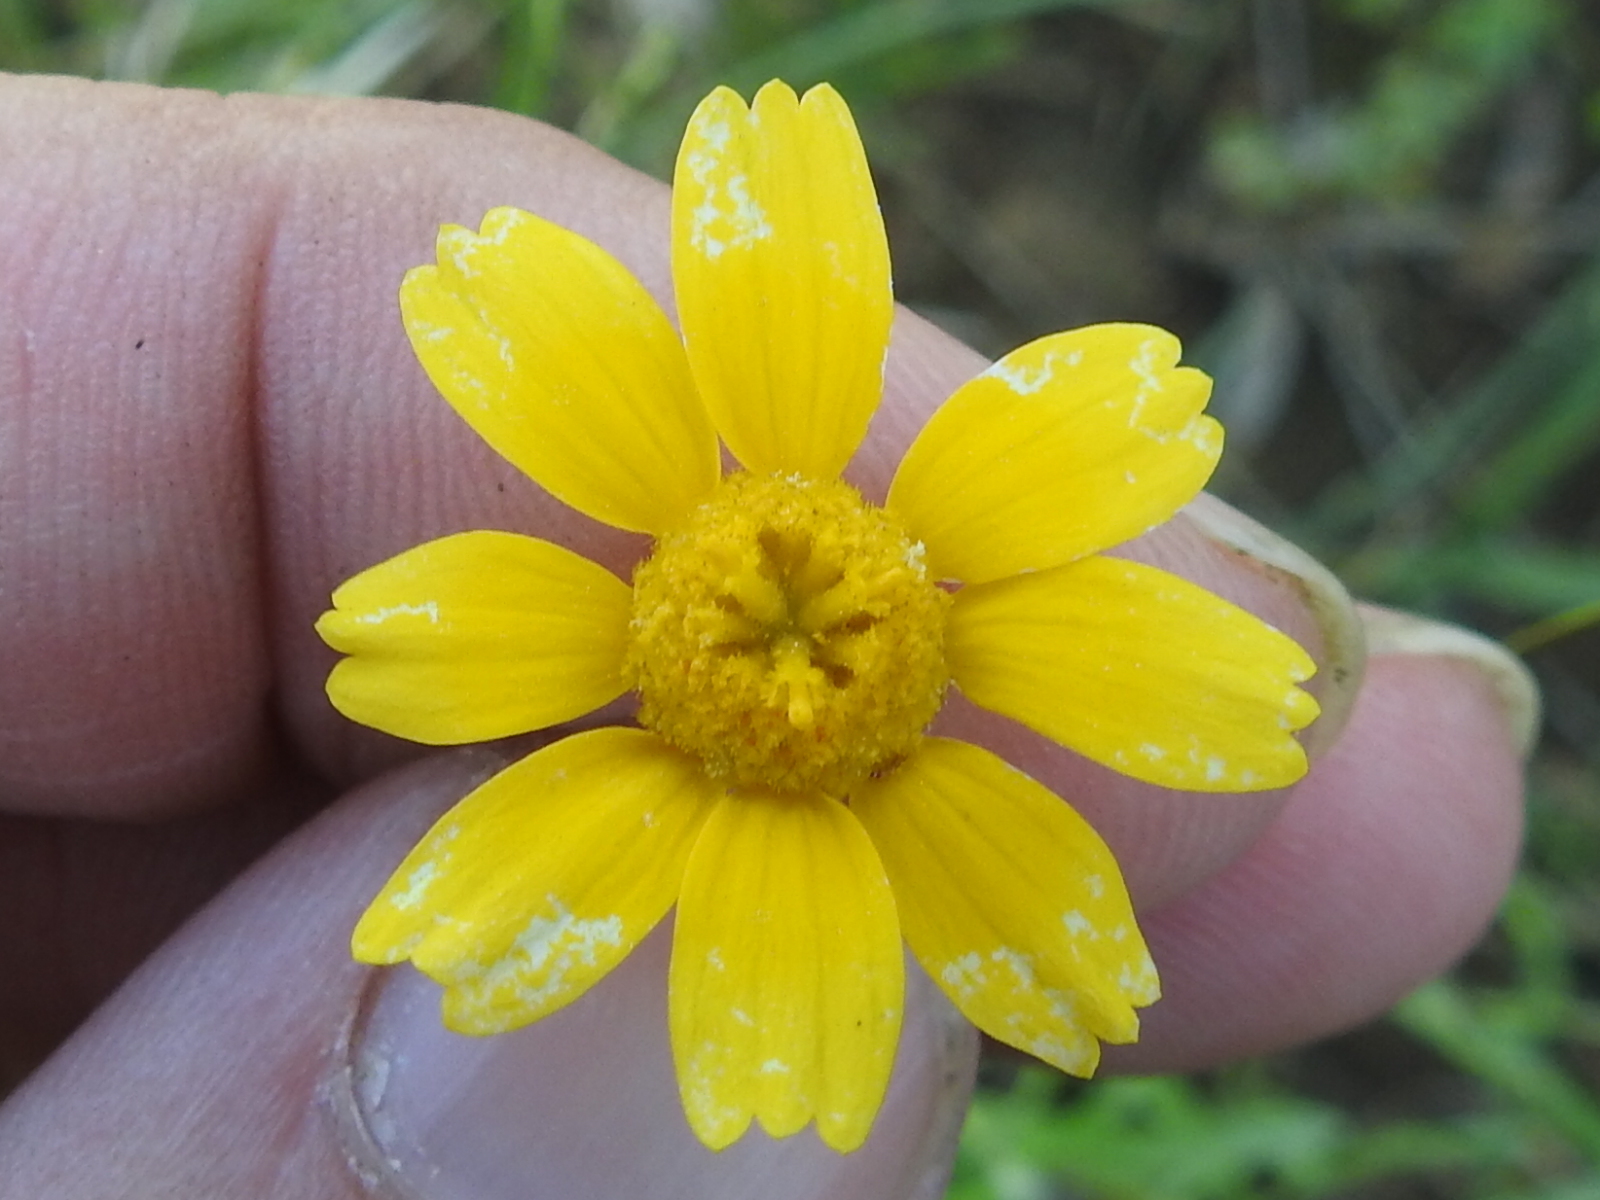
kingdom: Plantae
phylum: Tracheophyta
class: Magnoliopsida
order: Asterales
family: Asteraceae
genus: Tetraneuris
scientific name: Tetraneuris linearifolia
